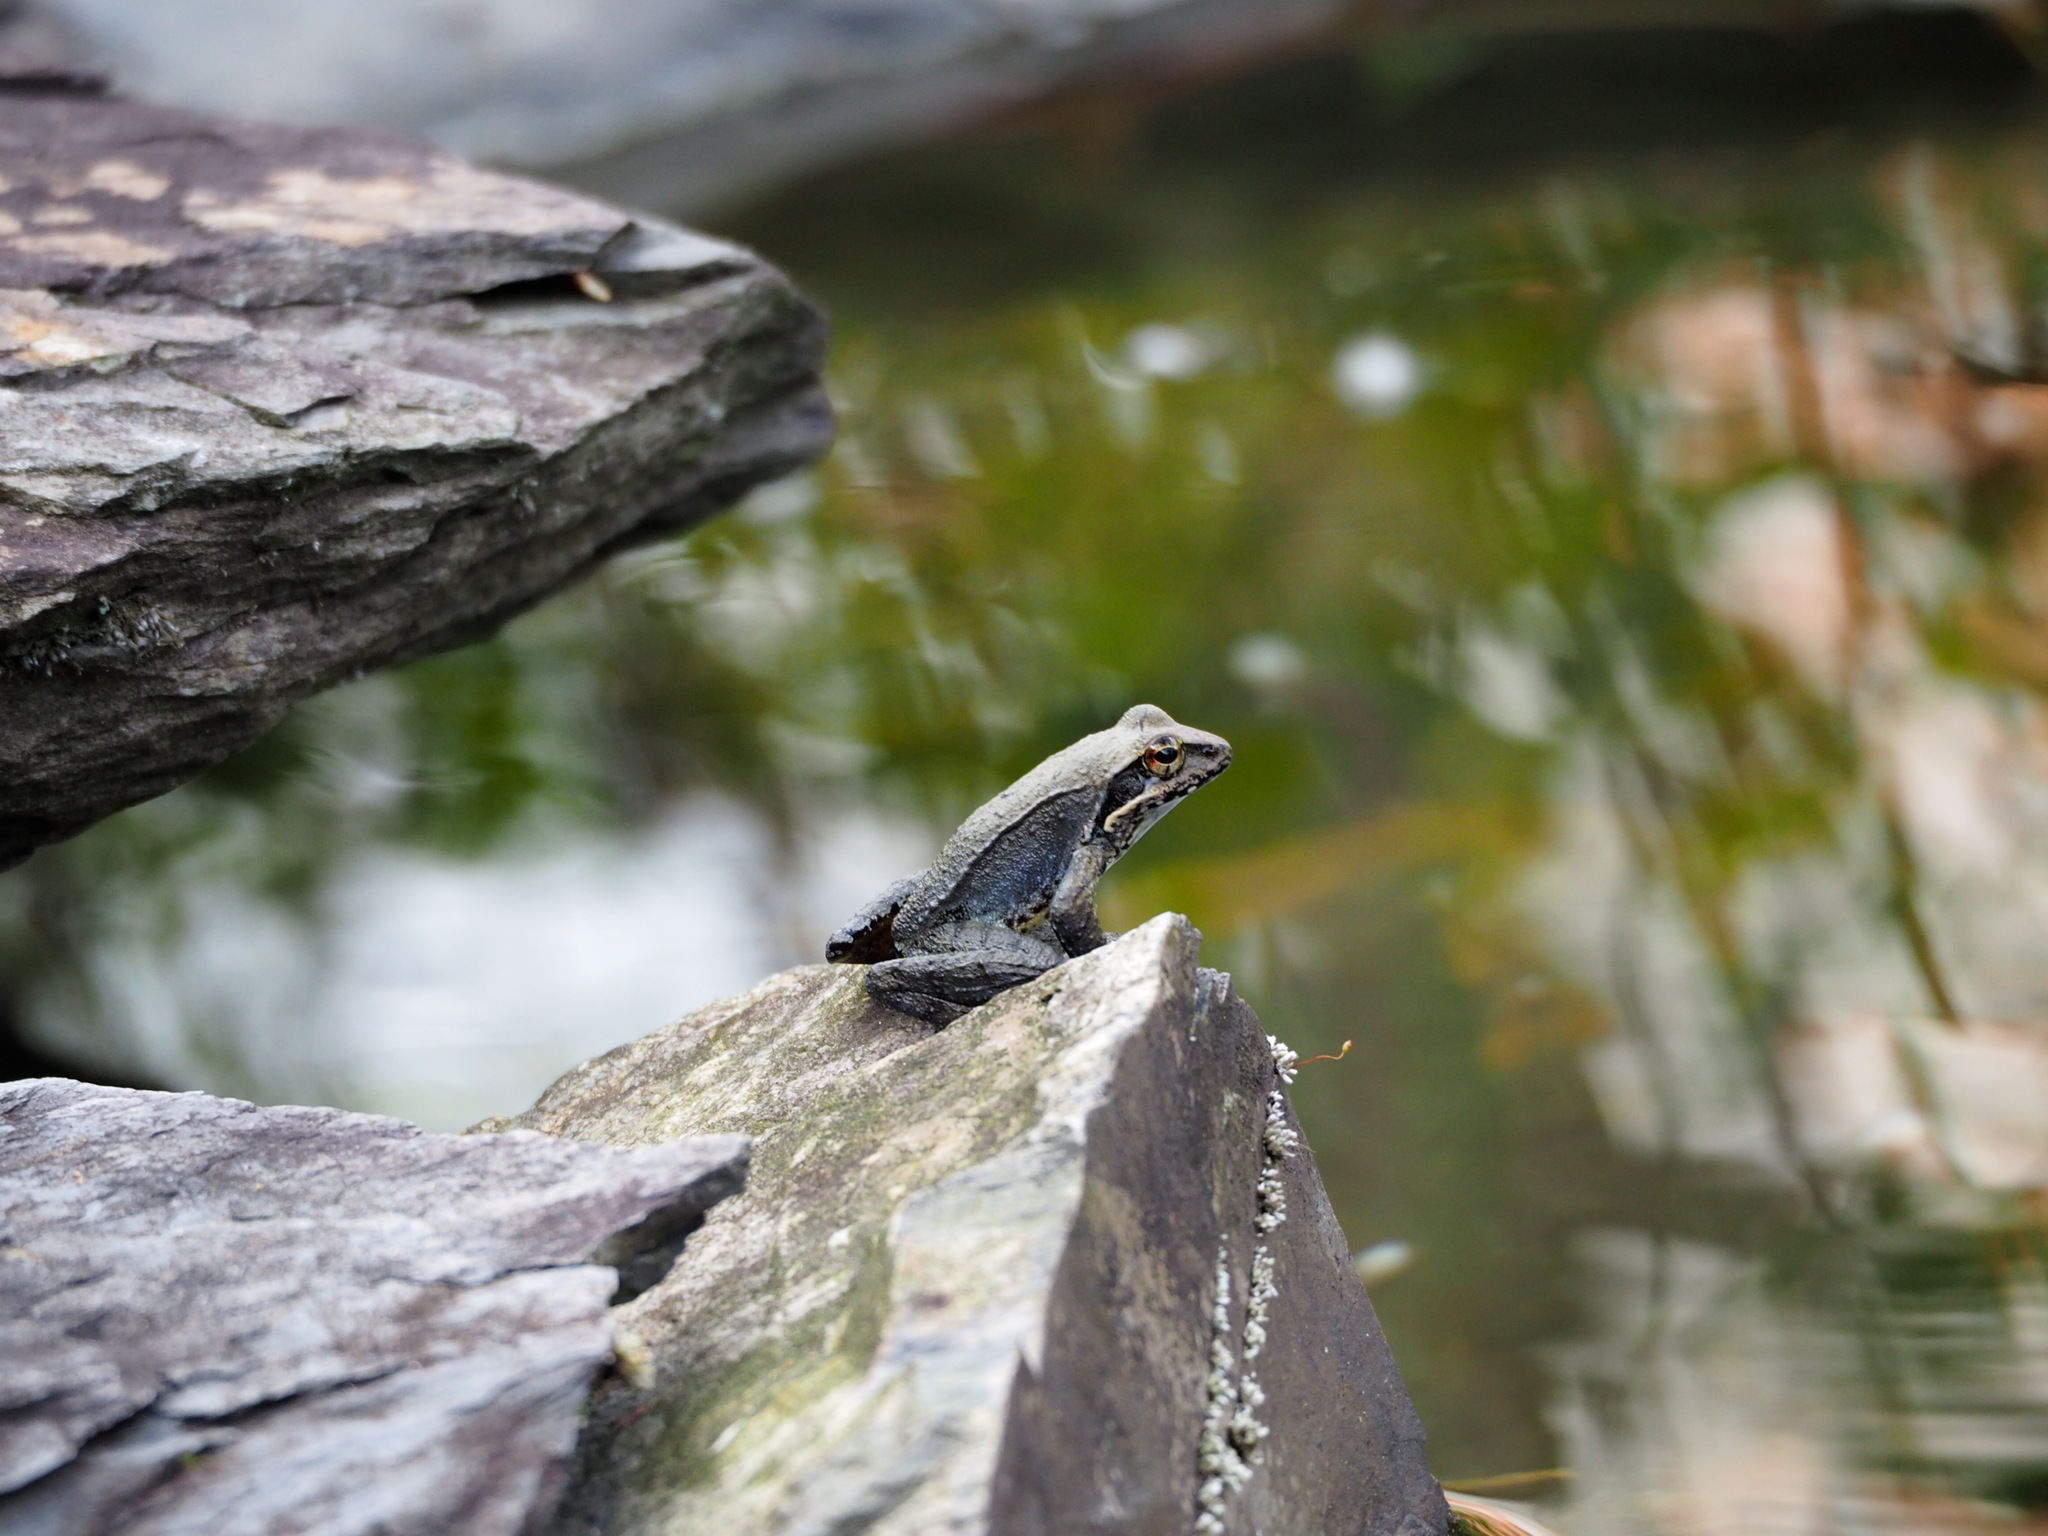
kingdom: Animalia
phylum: Chordata
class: Amphibia
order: Anura
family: Ranidae
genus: Rana
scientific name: Rana sauteri
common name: Kanshirei village frog
